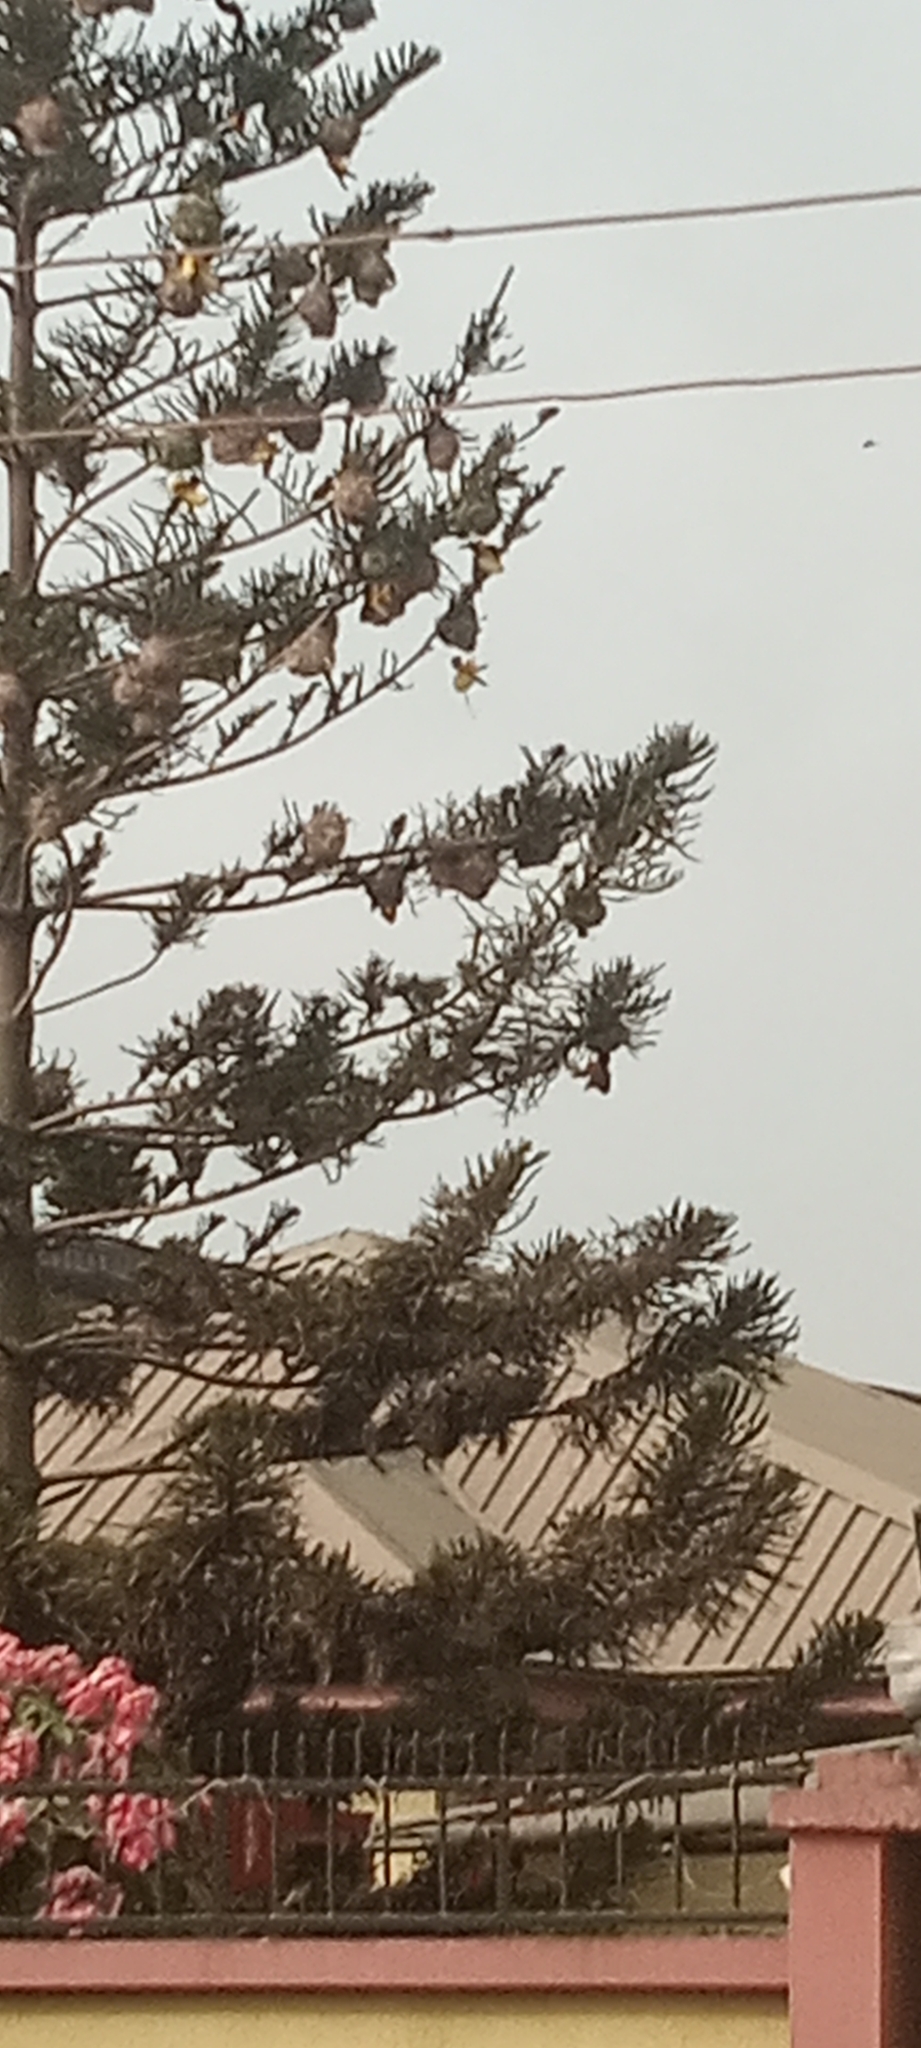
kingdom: Animalia
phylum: Chordata
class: Aves
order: Passeriformes
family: Ploceidae
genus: Ploceus
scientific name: Ploceus cucullatus
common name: Village weaver
